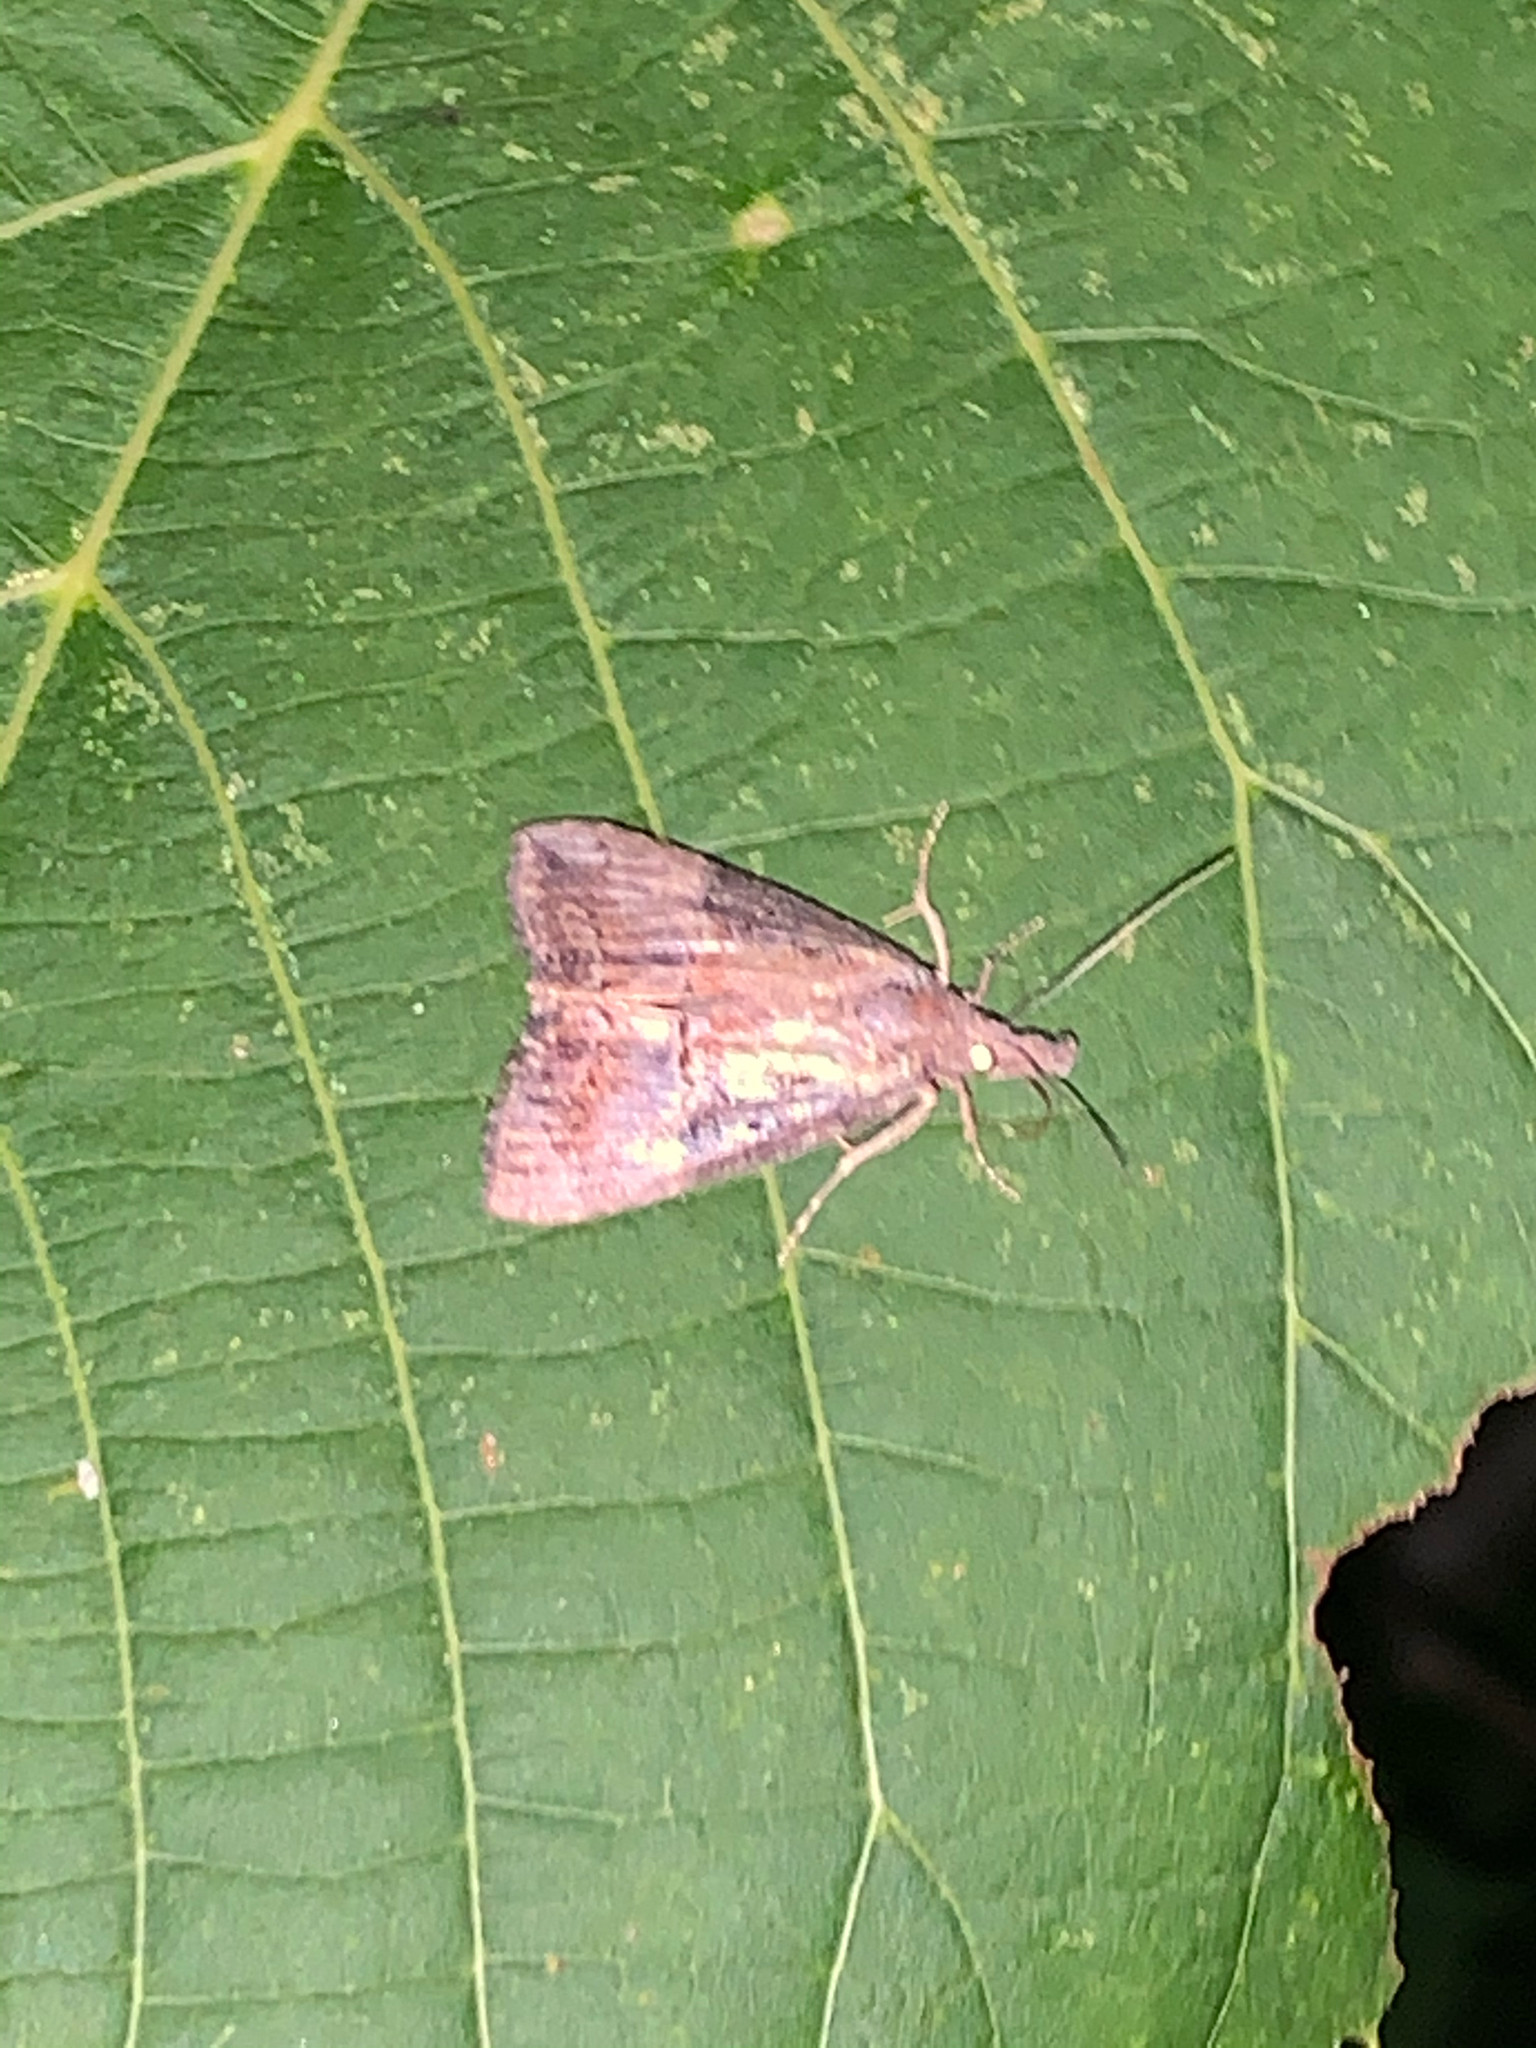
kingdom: Animalia
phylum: Arthropoda
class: Insecta
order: Lepidoptera
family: Erebidae
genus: Hypena
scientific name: Hypena scabra
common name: Green cloverworm
